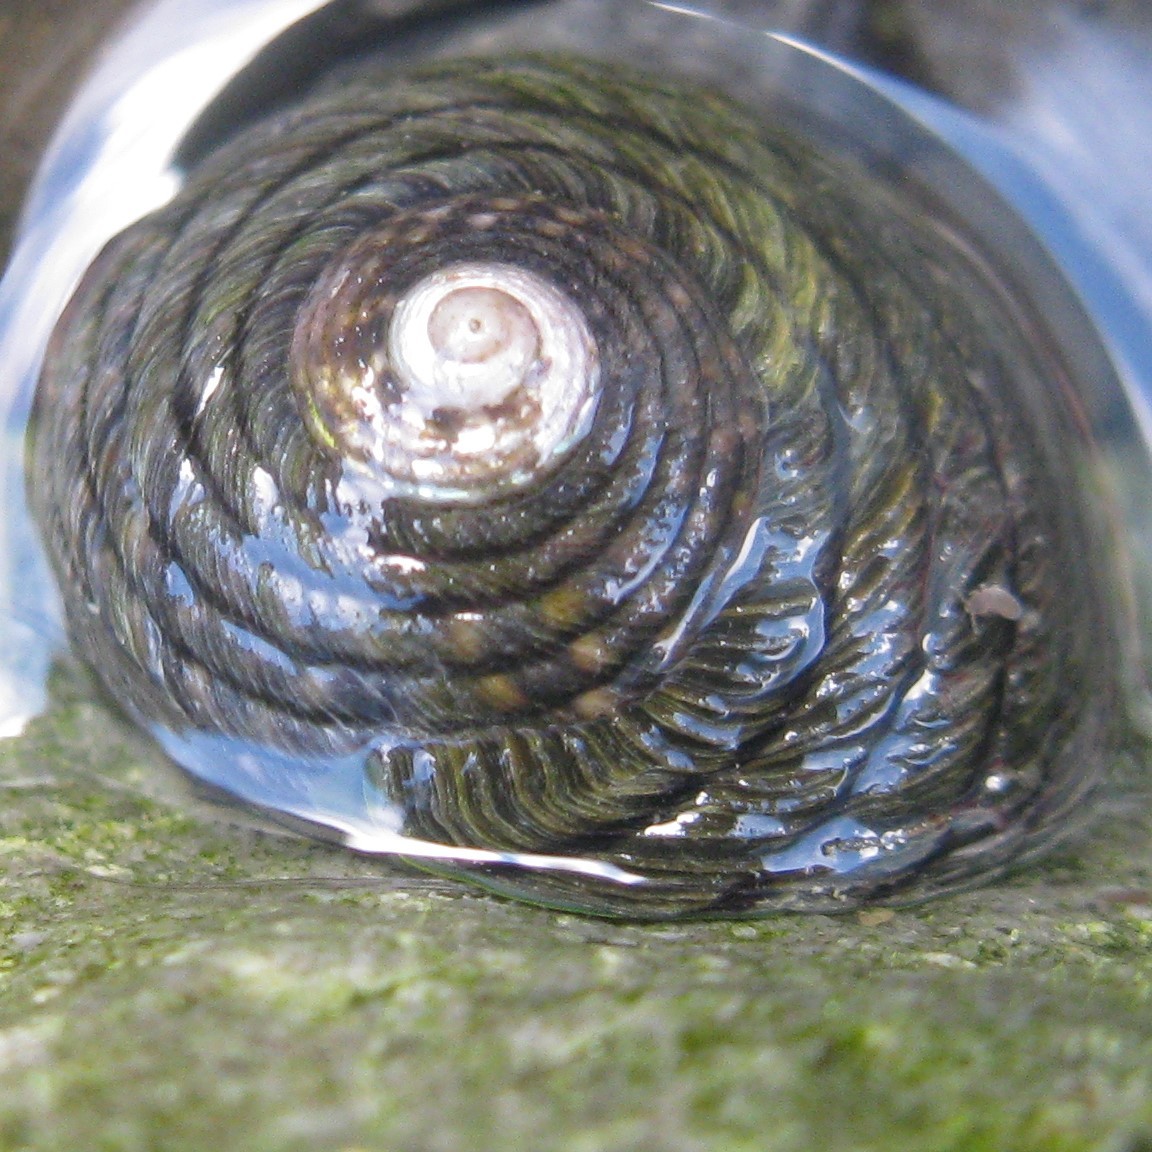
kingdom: Animalia
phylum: Mollusca
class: Gastropoda
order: Trochida
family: Trochidae
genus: Diloma
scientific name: Diloma aethiops
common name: Scorched monodont
